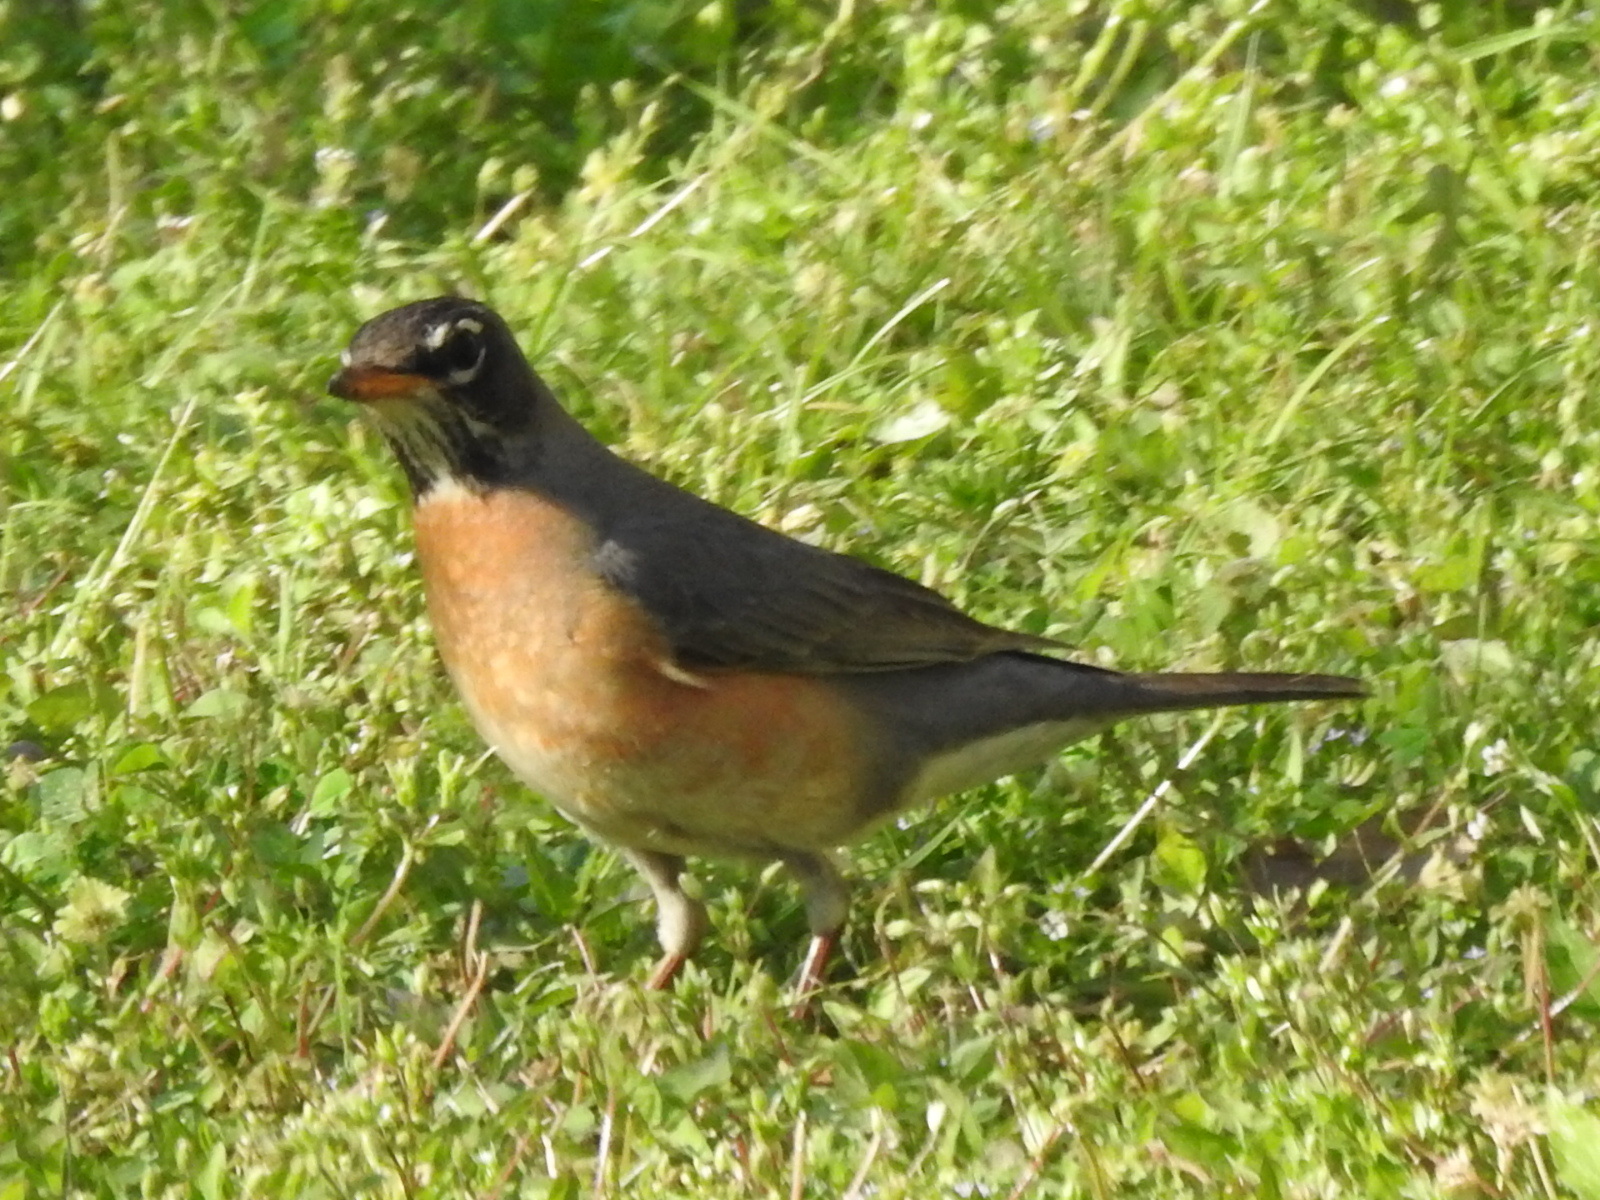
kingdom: Animalia
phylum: Chordata
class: Aves
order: Passeriformes
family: Turdidae
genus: Turdus
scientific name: Turdus migratorius
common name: American robin
